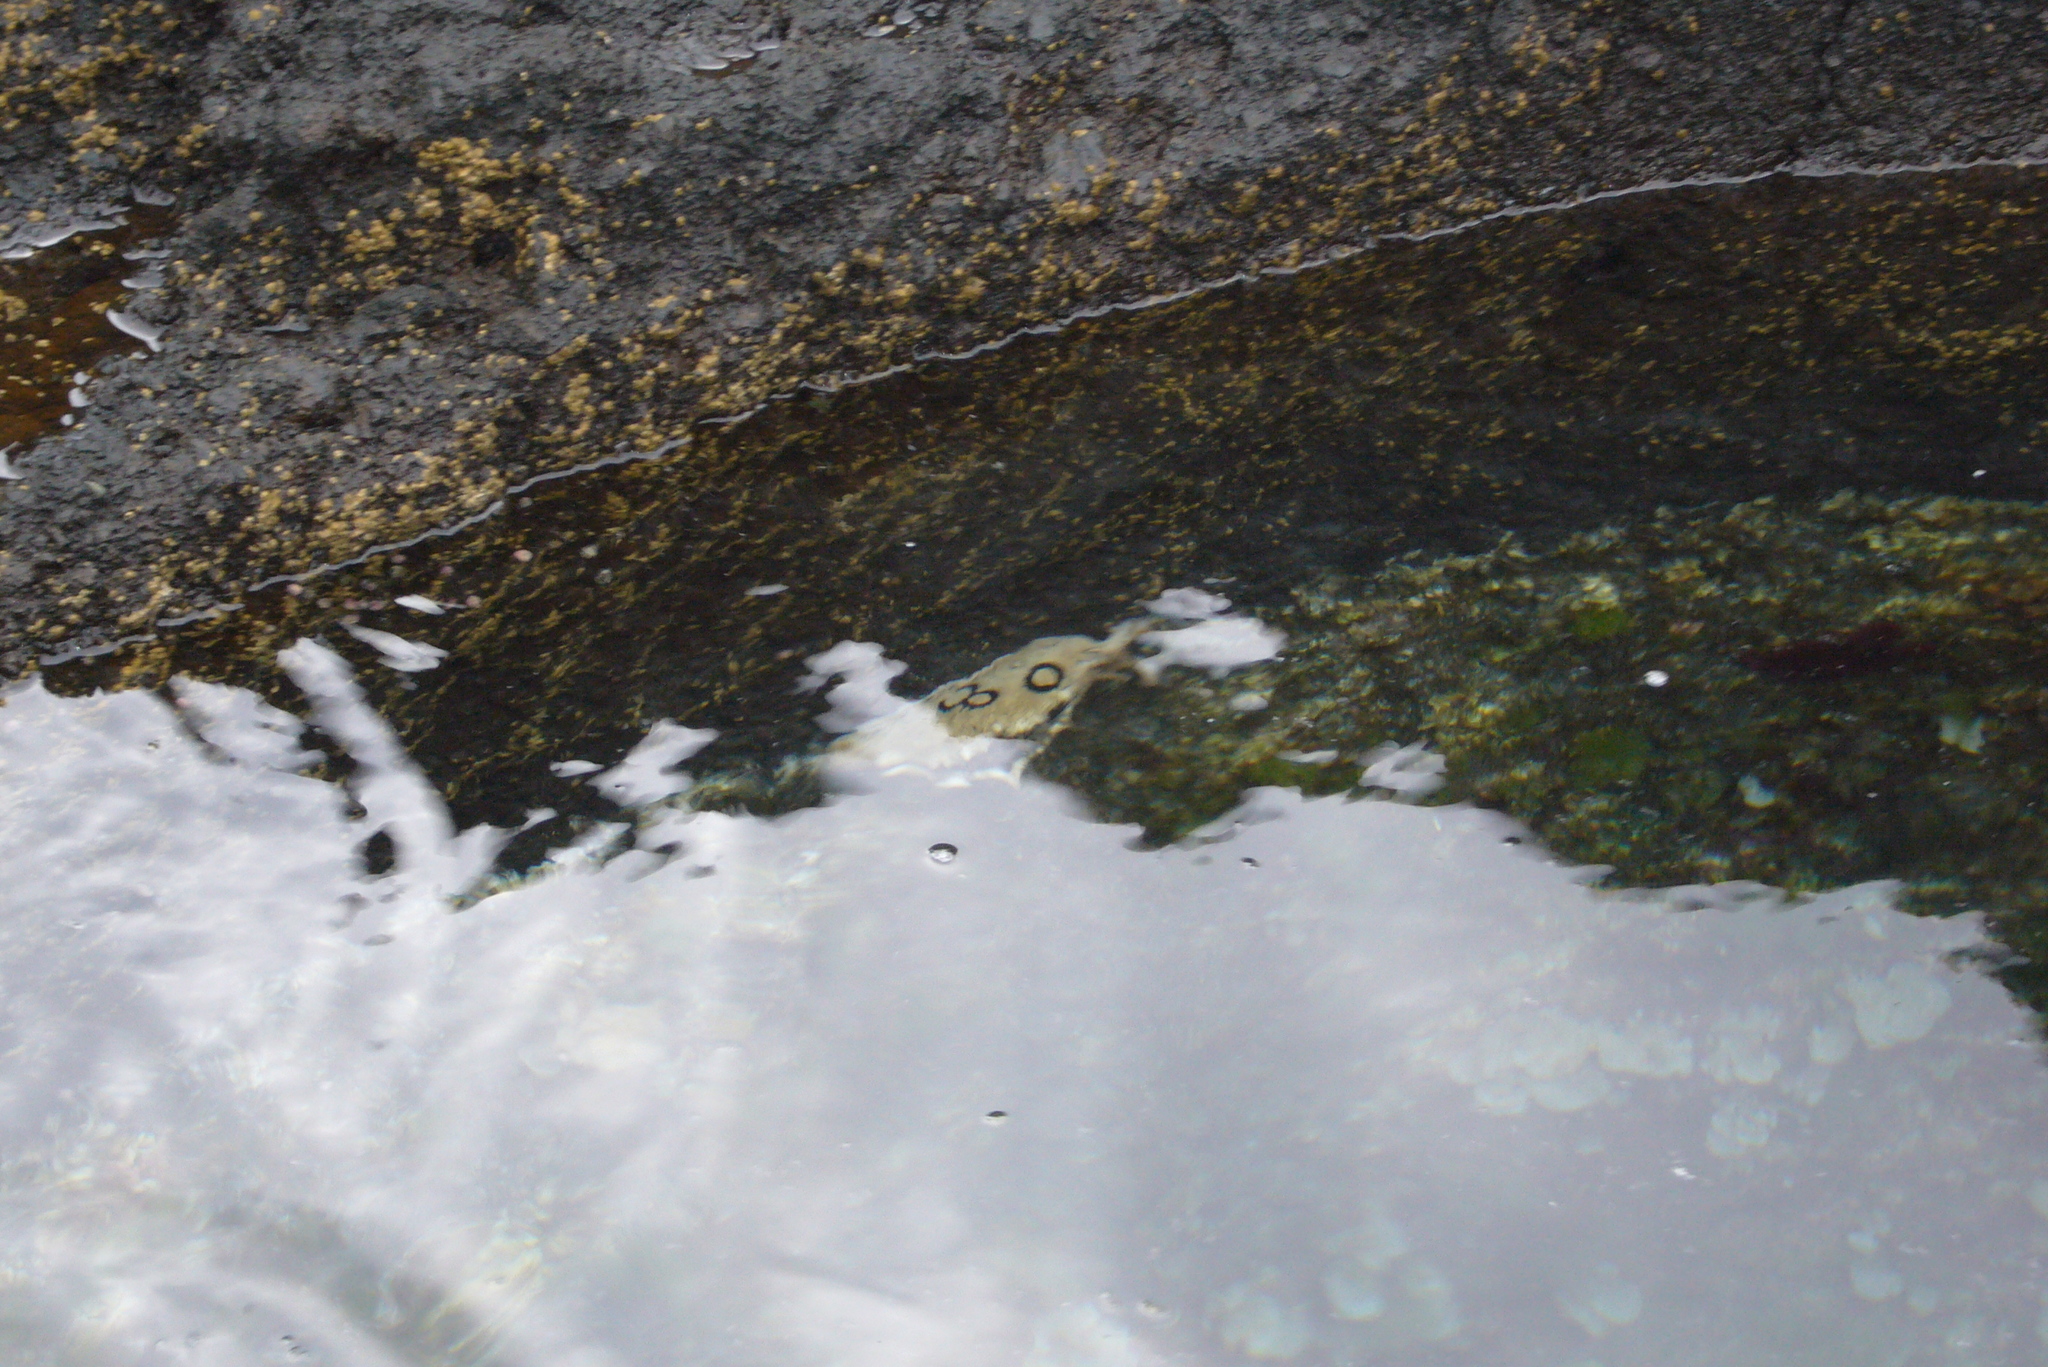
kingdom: Animalia
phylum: Mollusca
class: Gastropoda
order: Aplysiida
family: Aplysiidae
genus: Aplysia
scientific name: Aplysia dactylomela
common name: Large-spotted sea hare
